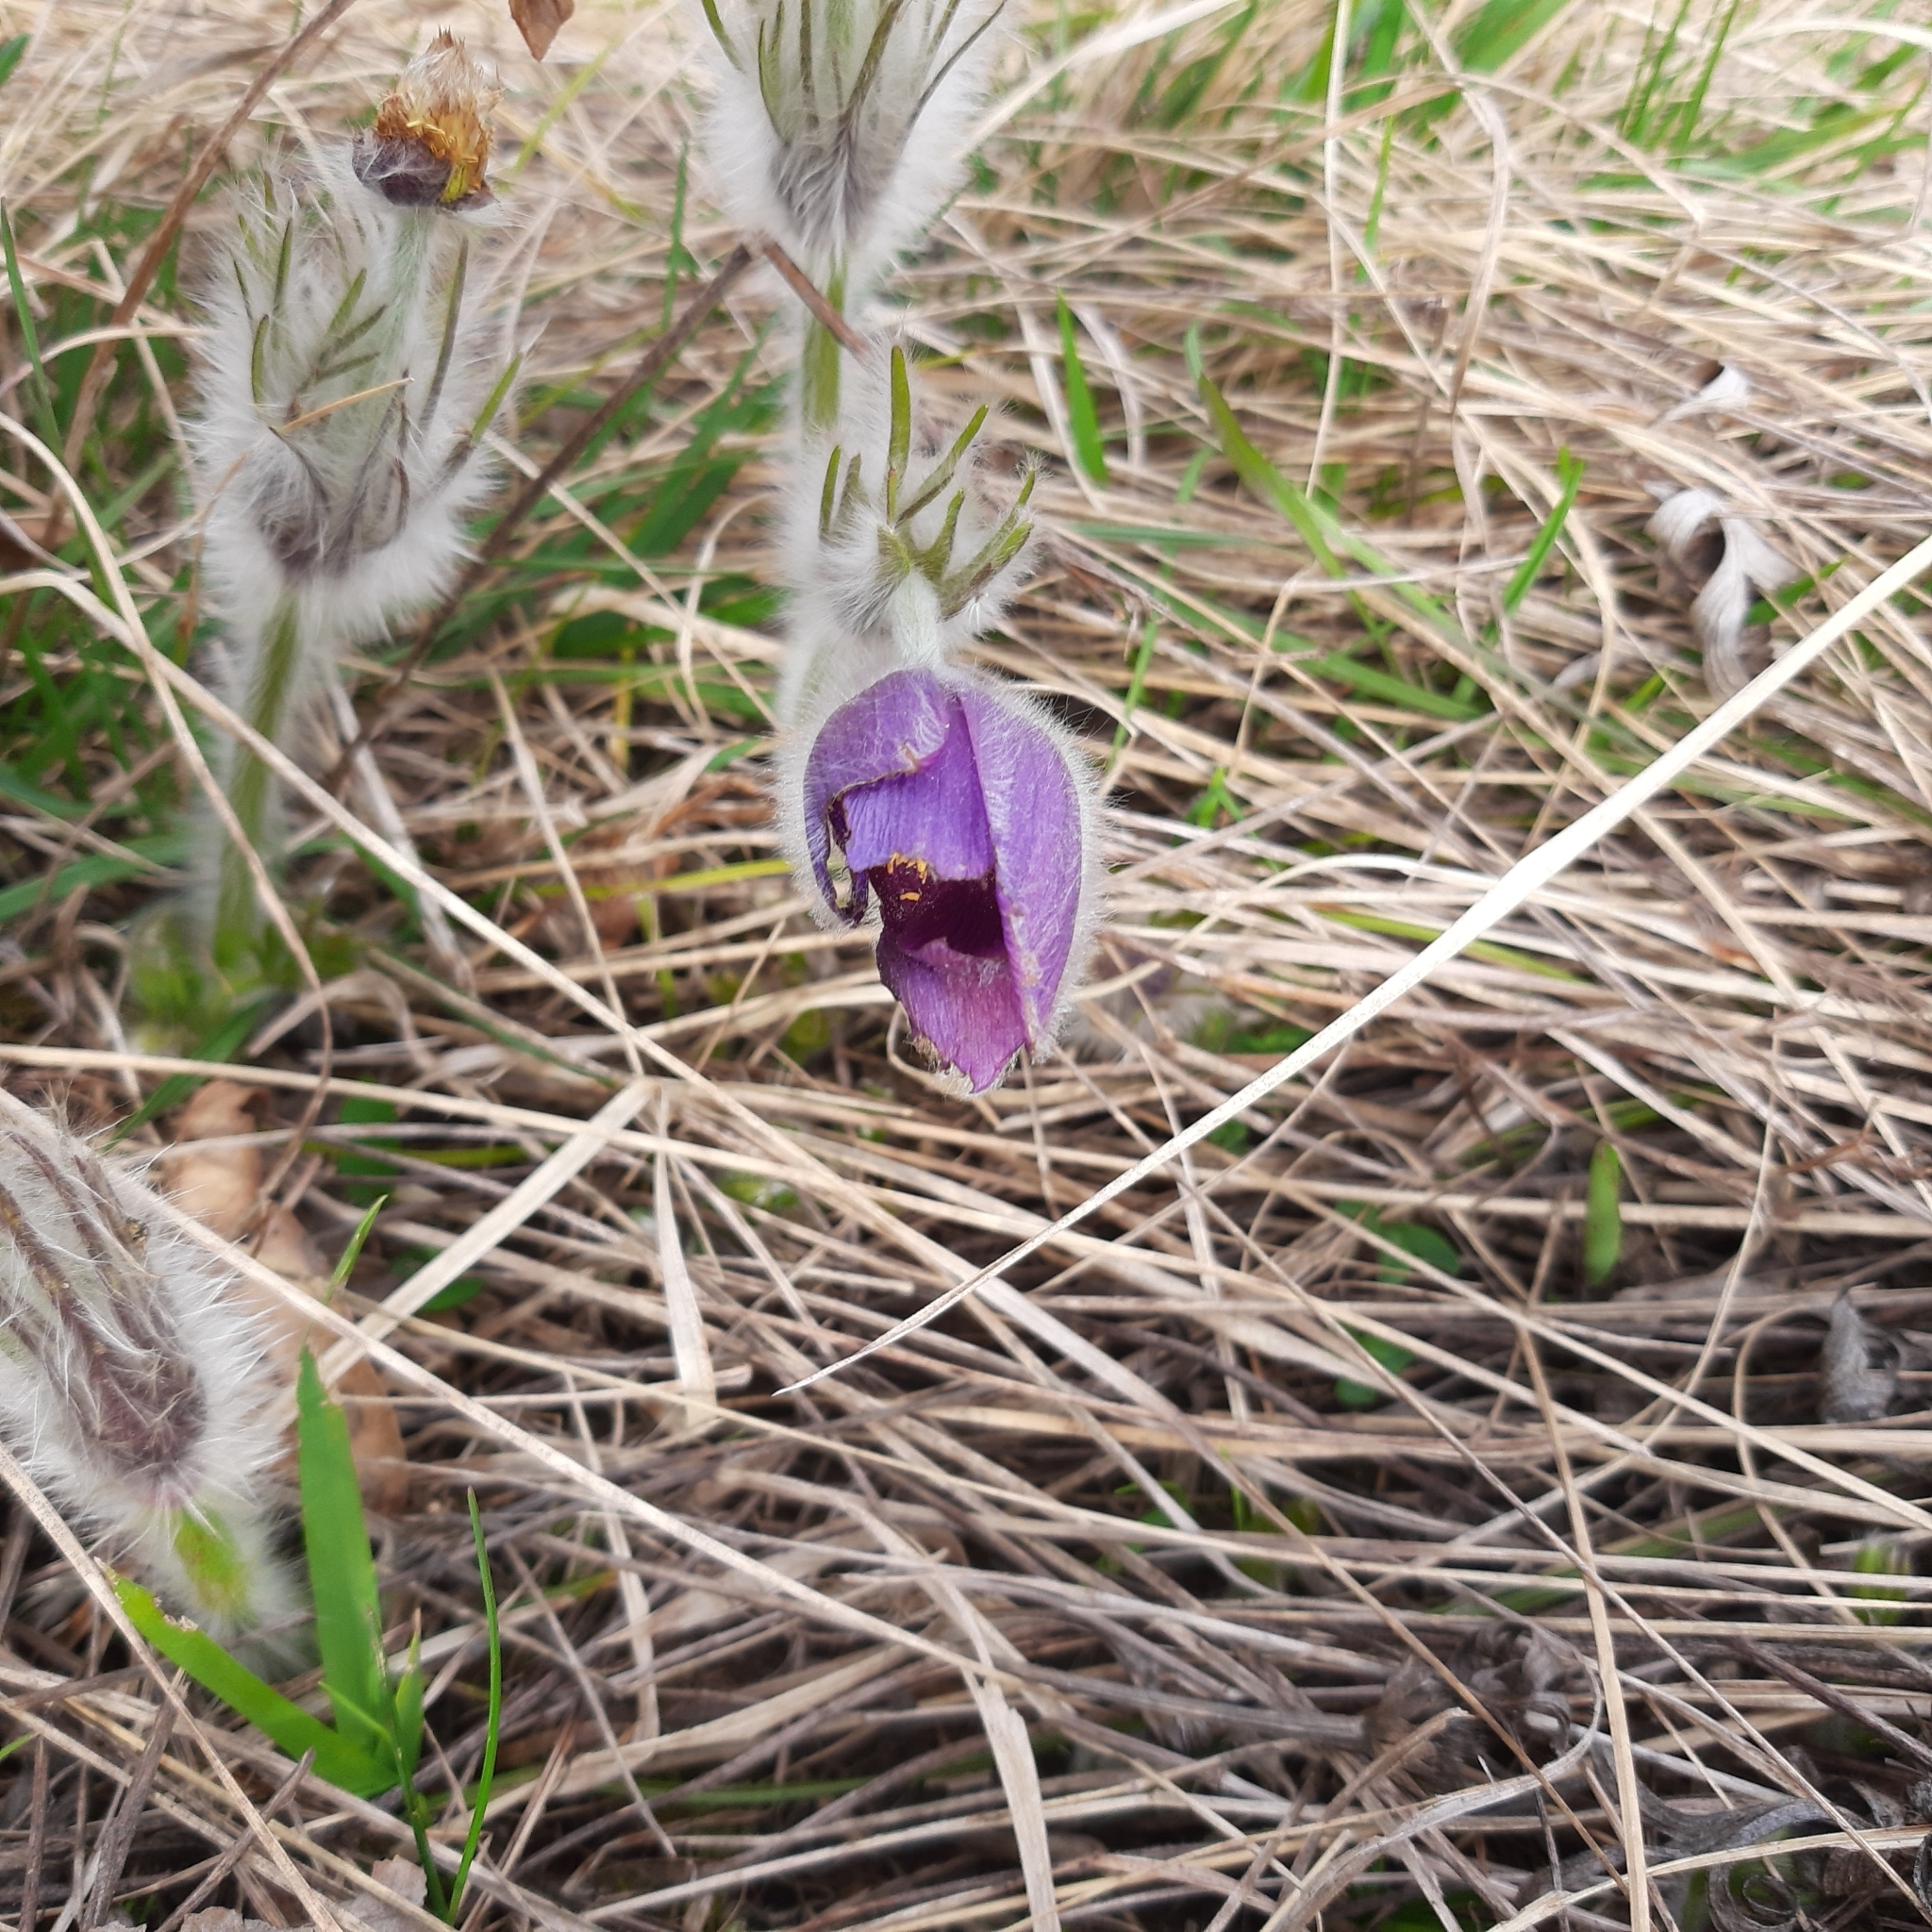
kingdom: Plantae
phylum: Tracheophyta
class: Magnoliopsida
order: Ranunculales
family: Ranunculaceae
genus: Pulsatilla
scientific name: Pulsatilla grandis
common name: Greater pasque flower
